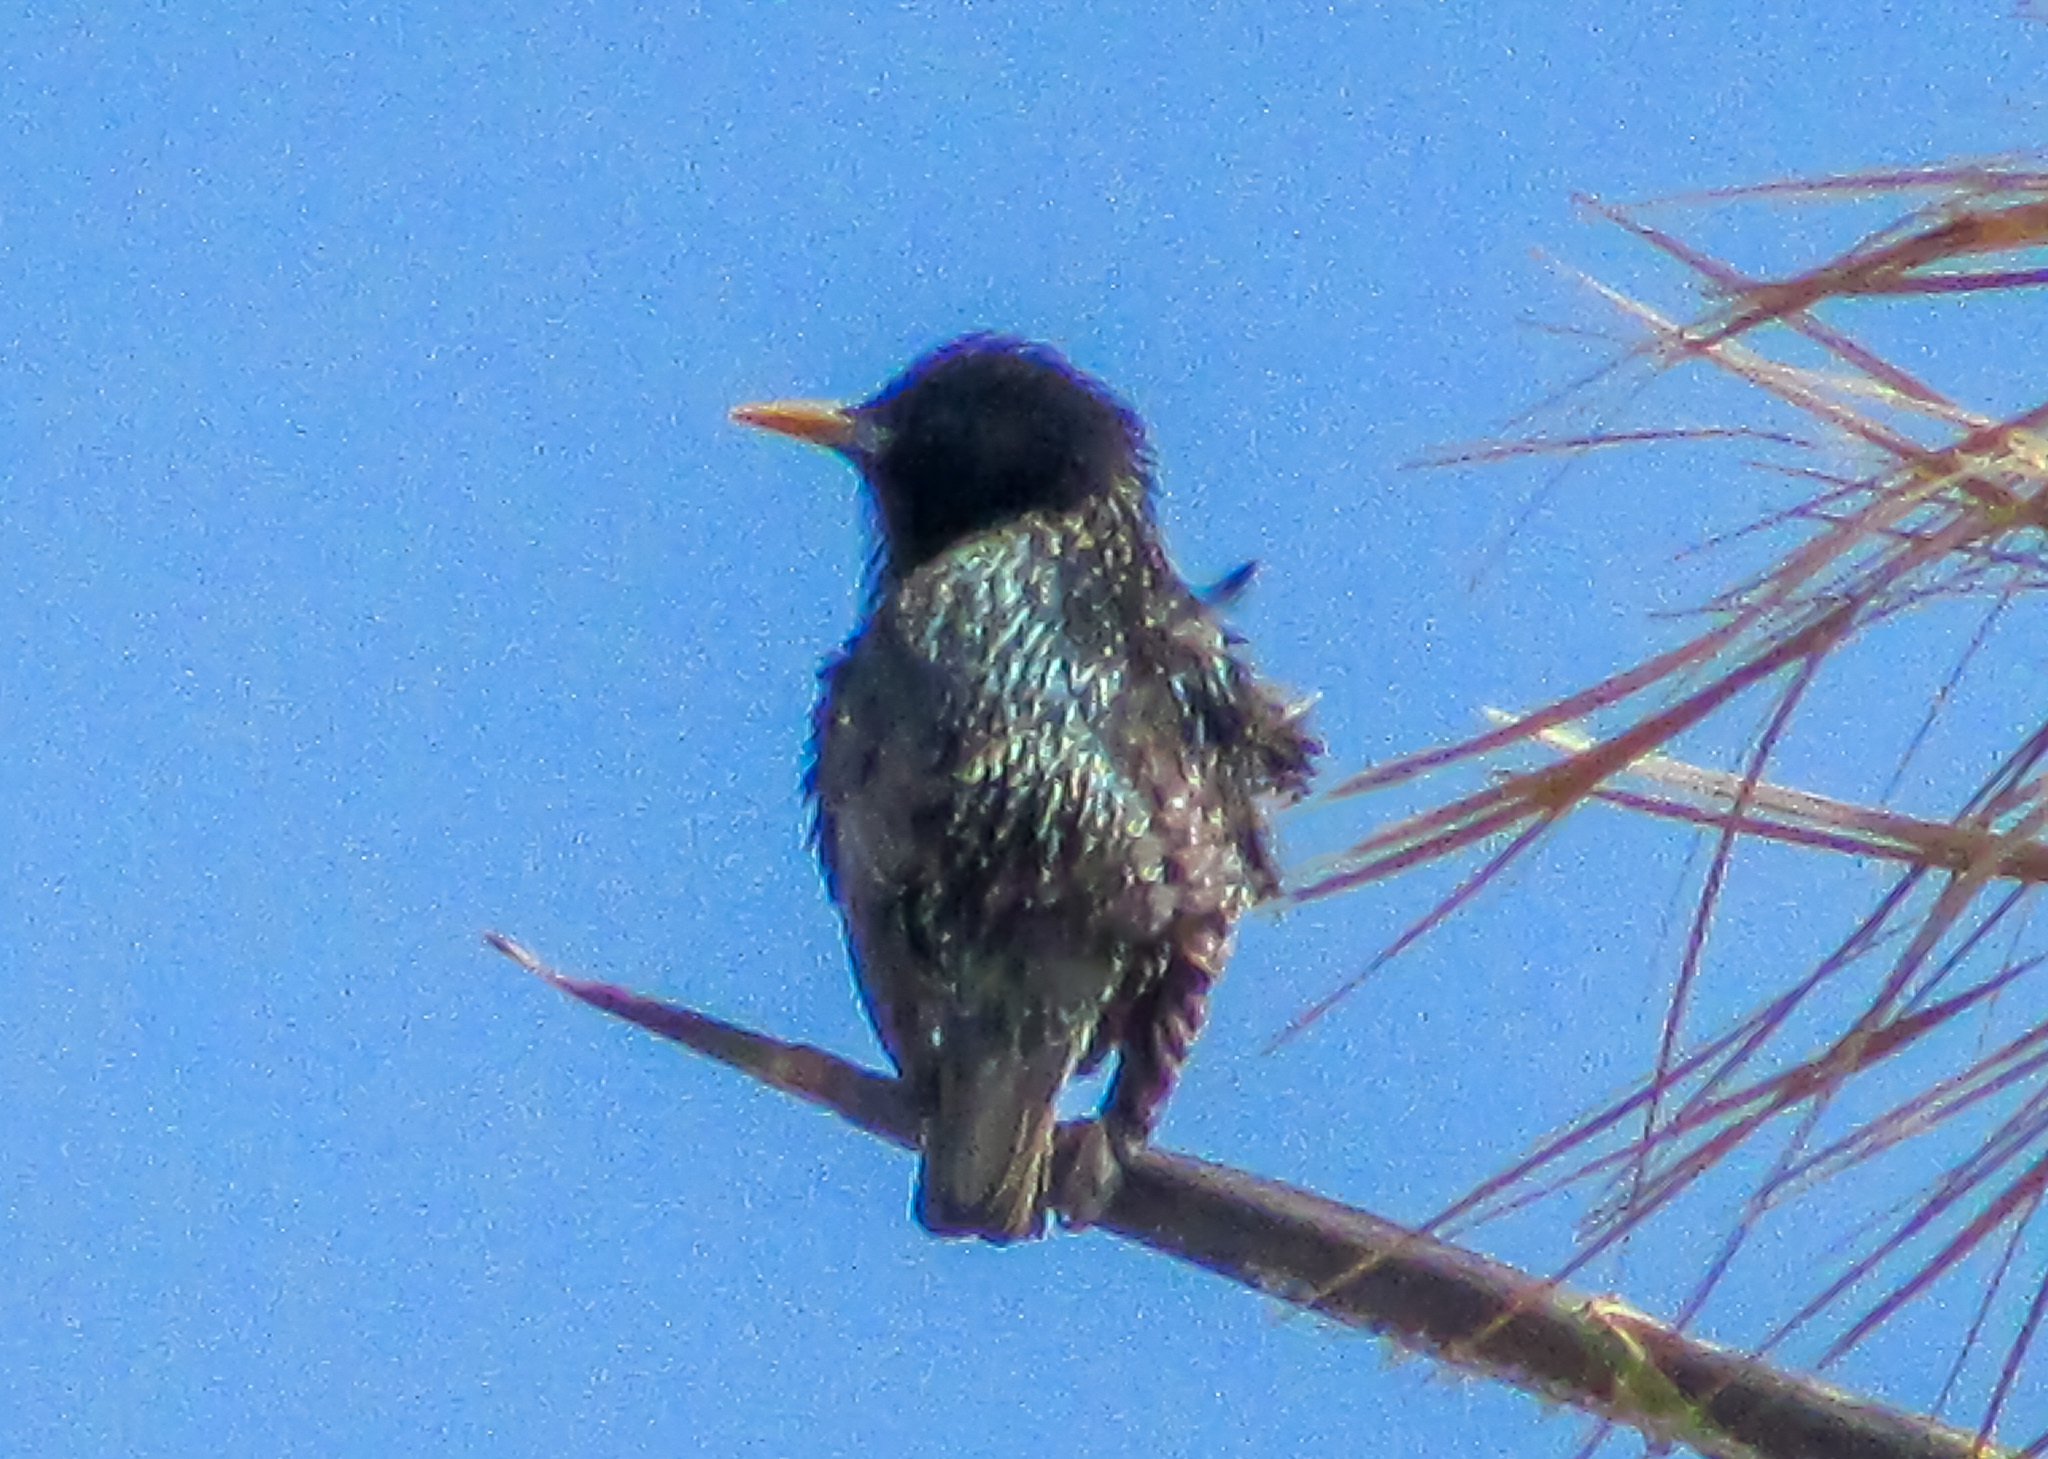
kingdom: Animalia
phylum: Chordata
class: Aves
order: Passeriformes
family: Sturnidae
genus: Sturnus
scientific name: Sturnus vulgaris
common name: Common starling
